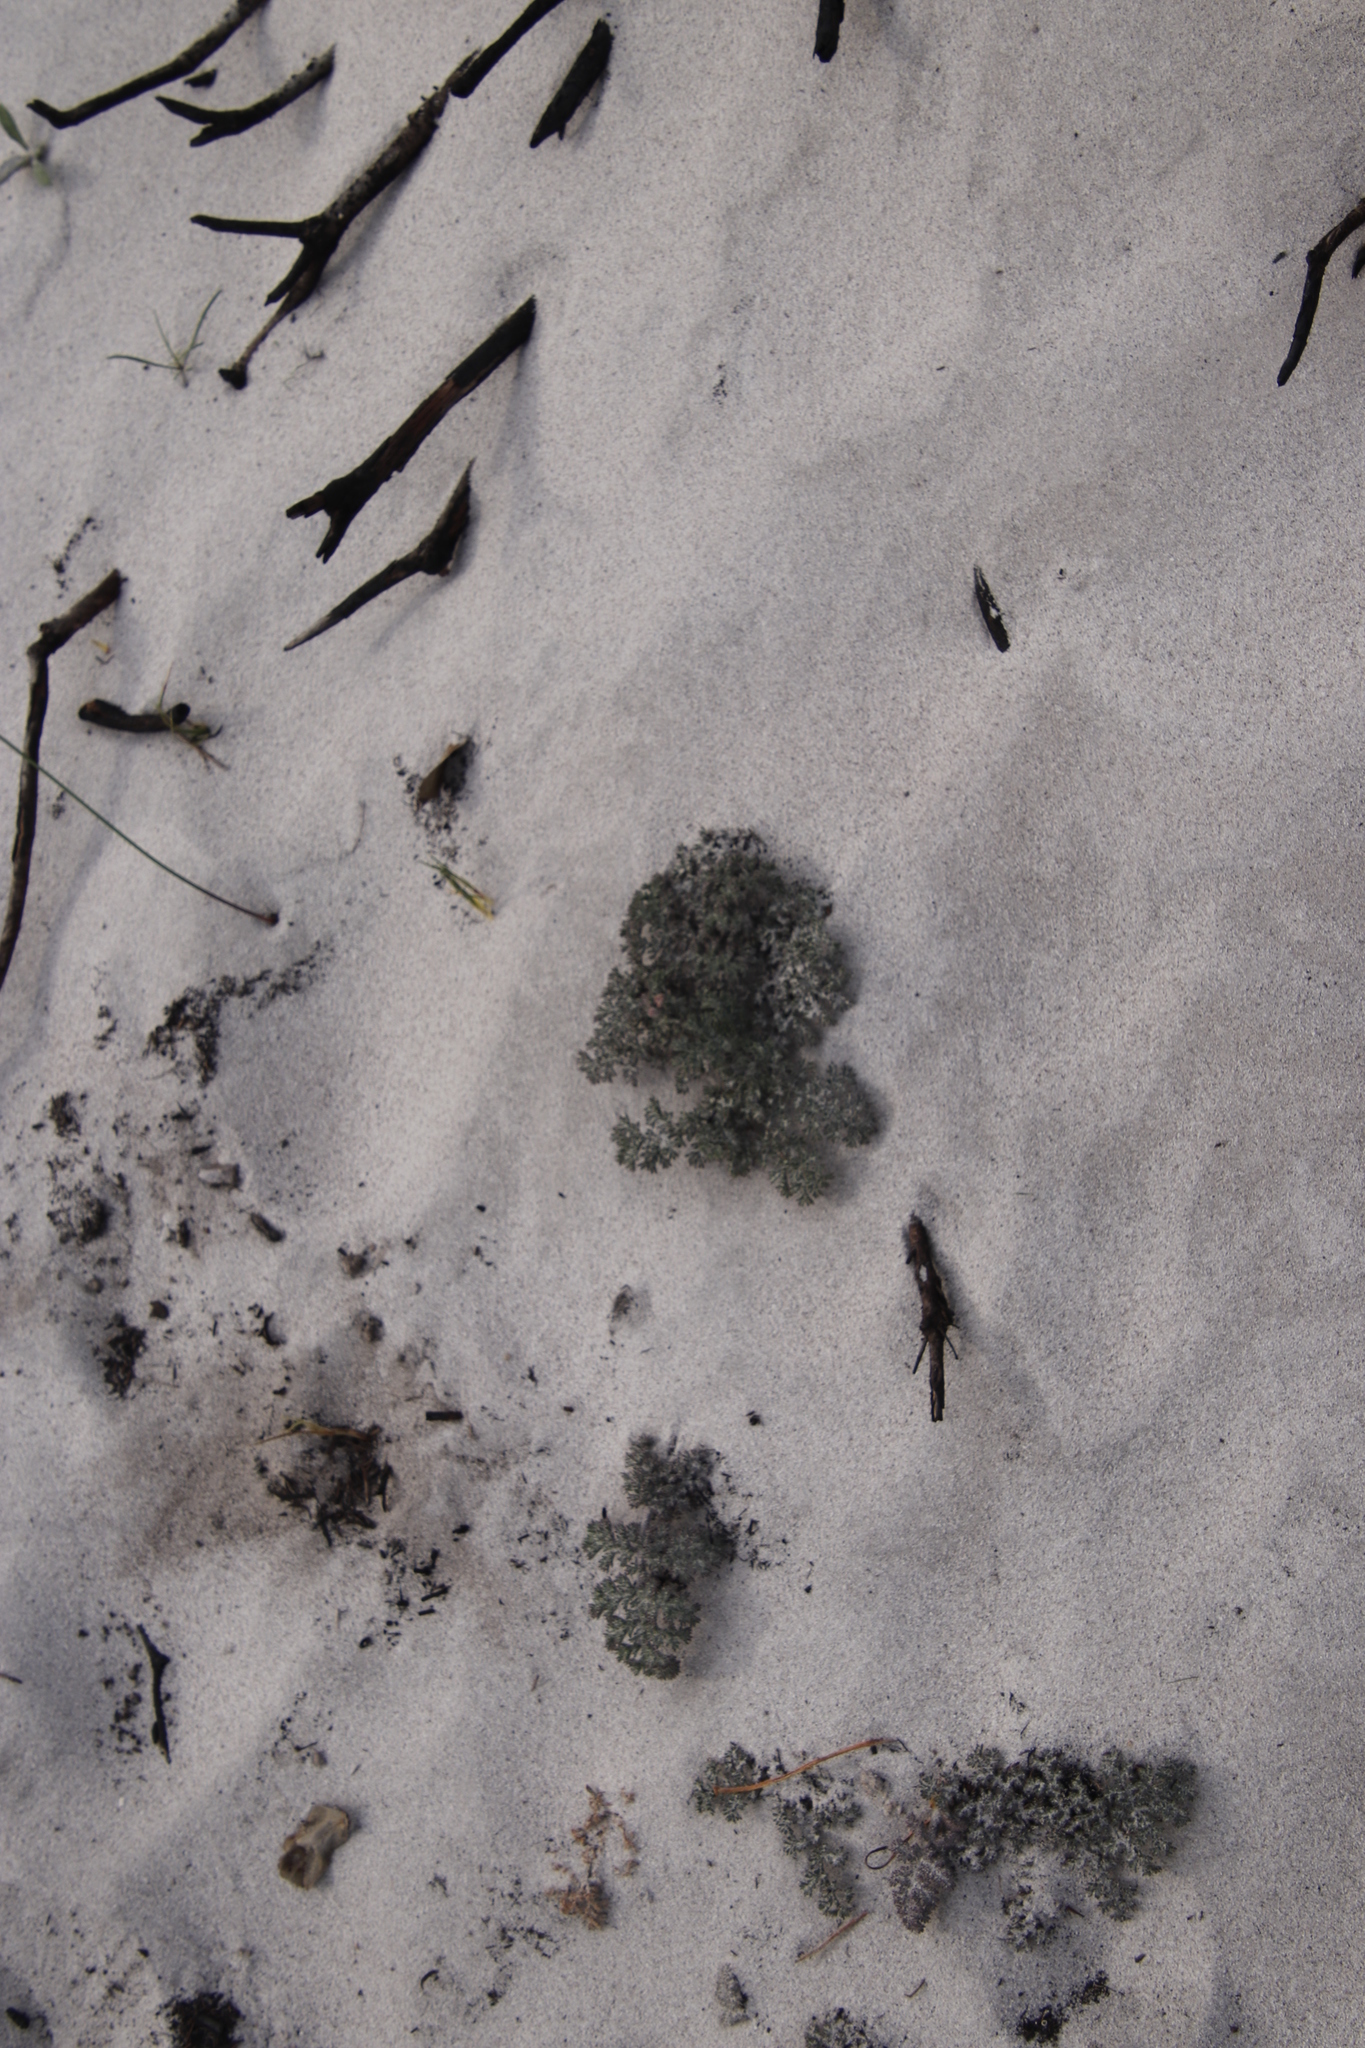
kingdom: Plantae
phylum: Tracheophyta
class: Magnoliopsida
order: Geraniales
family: Geraniaceae
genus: Pelargonium
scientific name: Pelargonium triste
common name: Night-scent pelargonium
